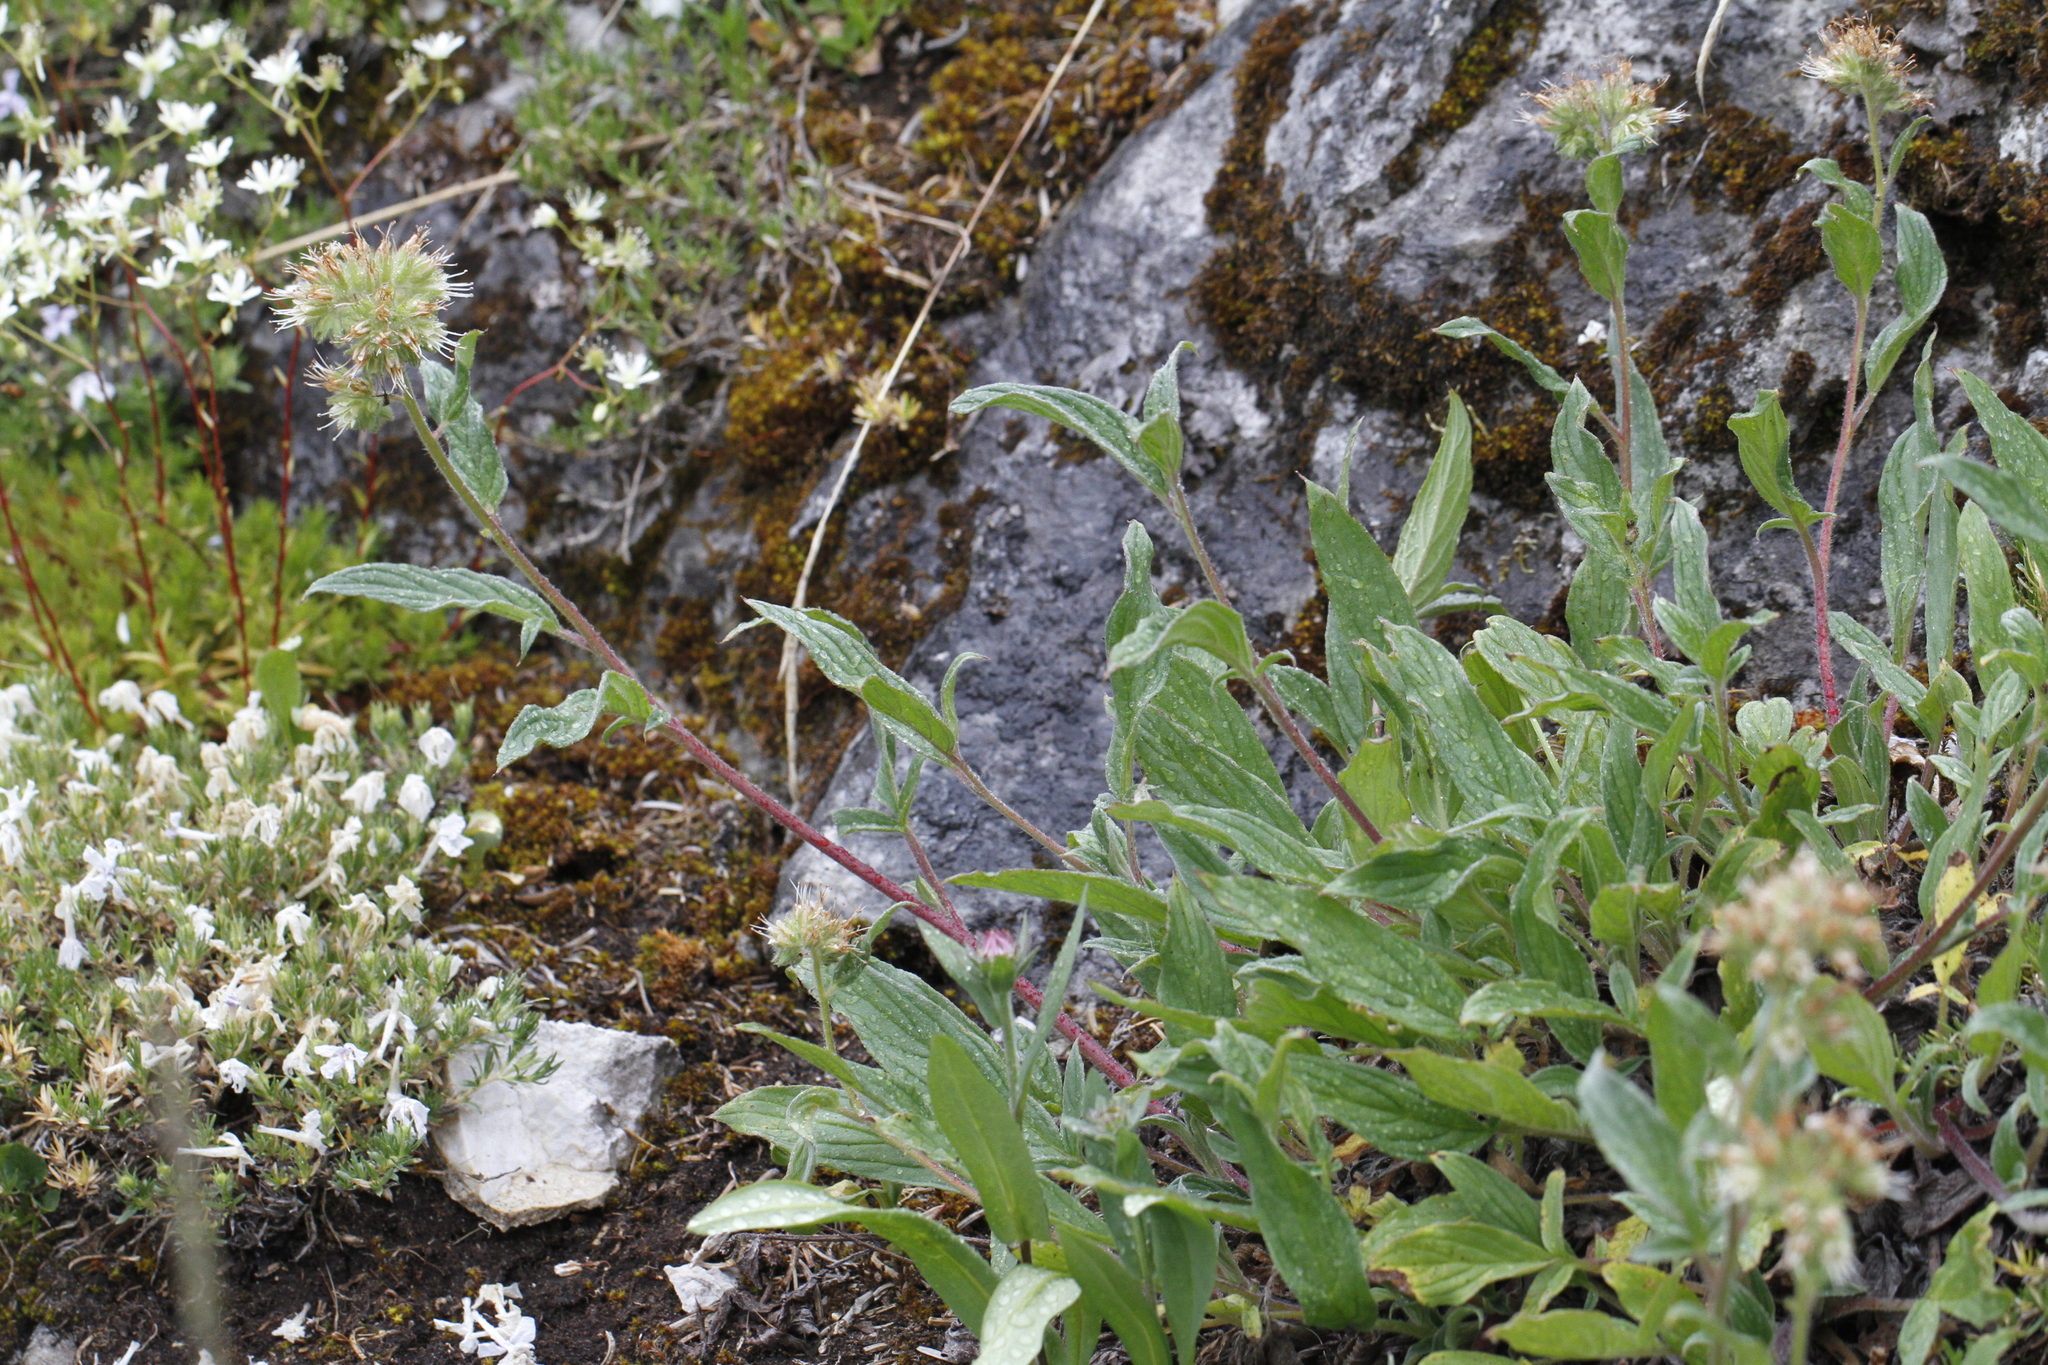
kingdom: Plantae
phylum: Tracheophyta
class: Magnoliopsida
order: Boraginales
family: Hydrophyllaceae
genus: Phacelia
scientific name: Phacelia leptosepala
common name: Narrow-sepaled phacelia
